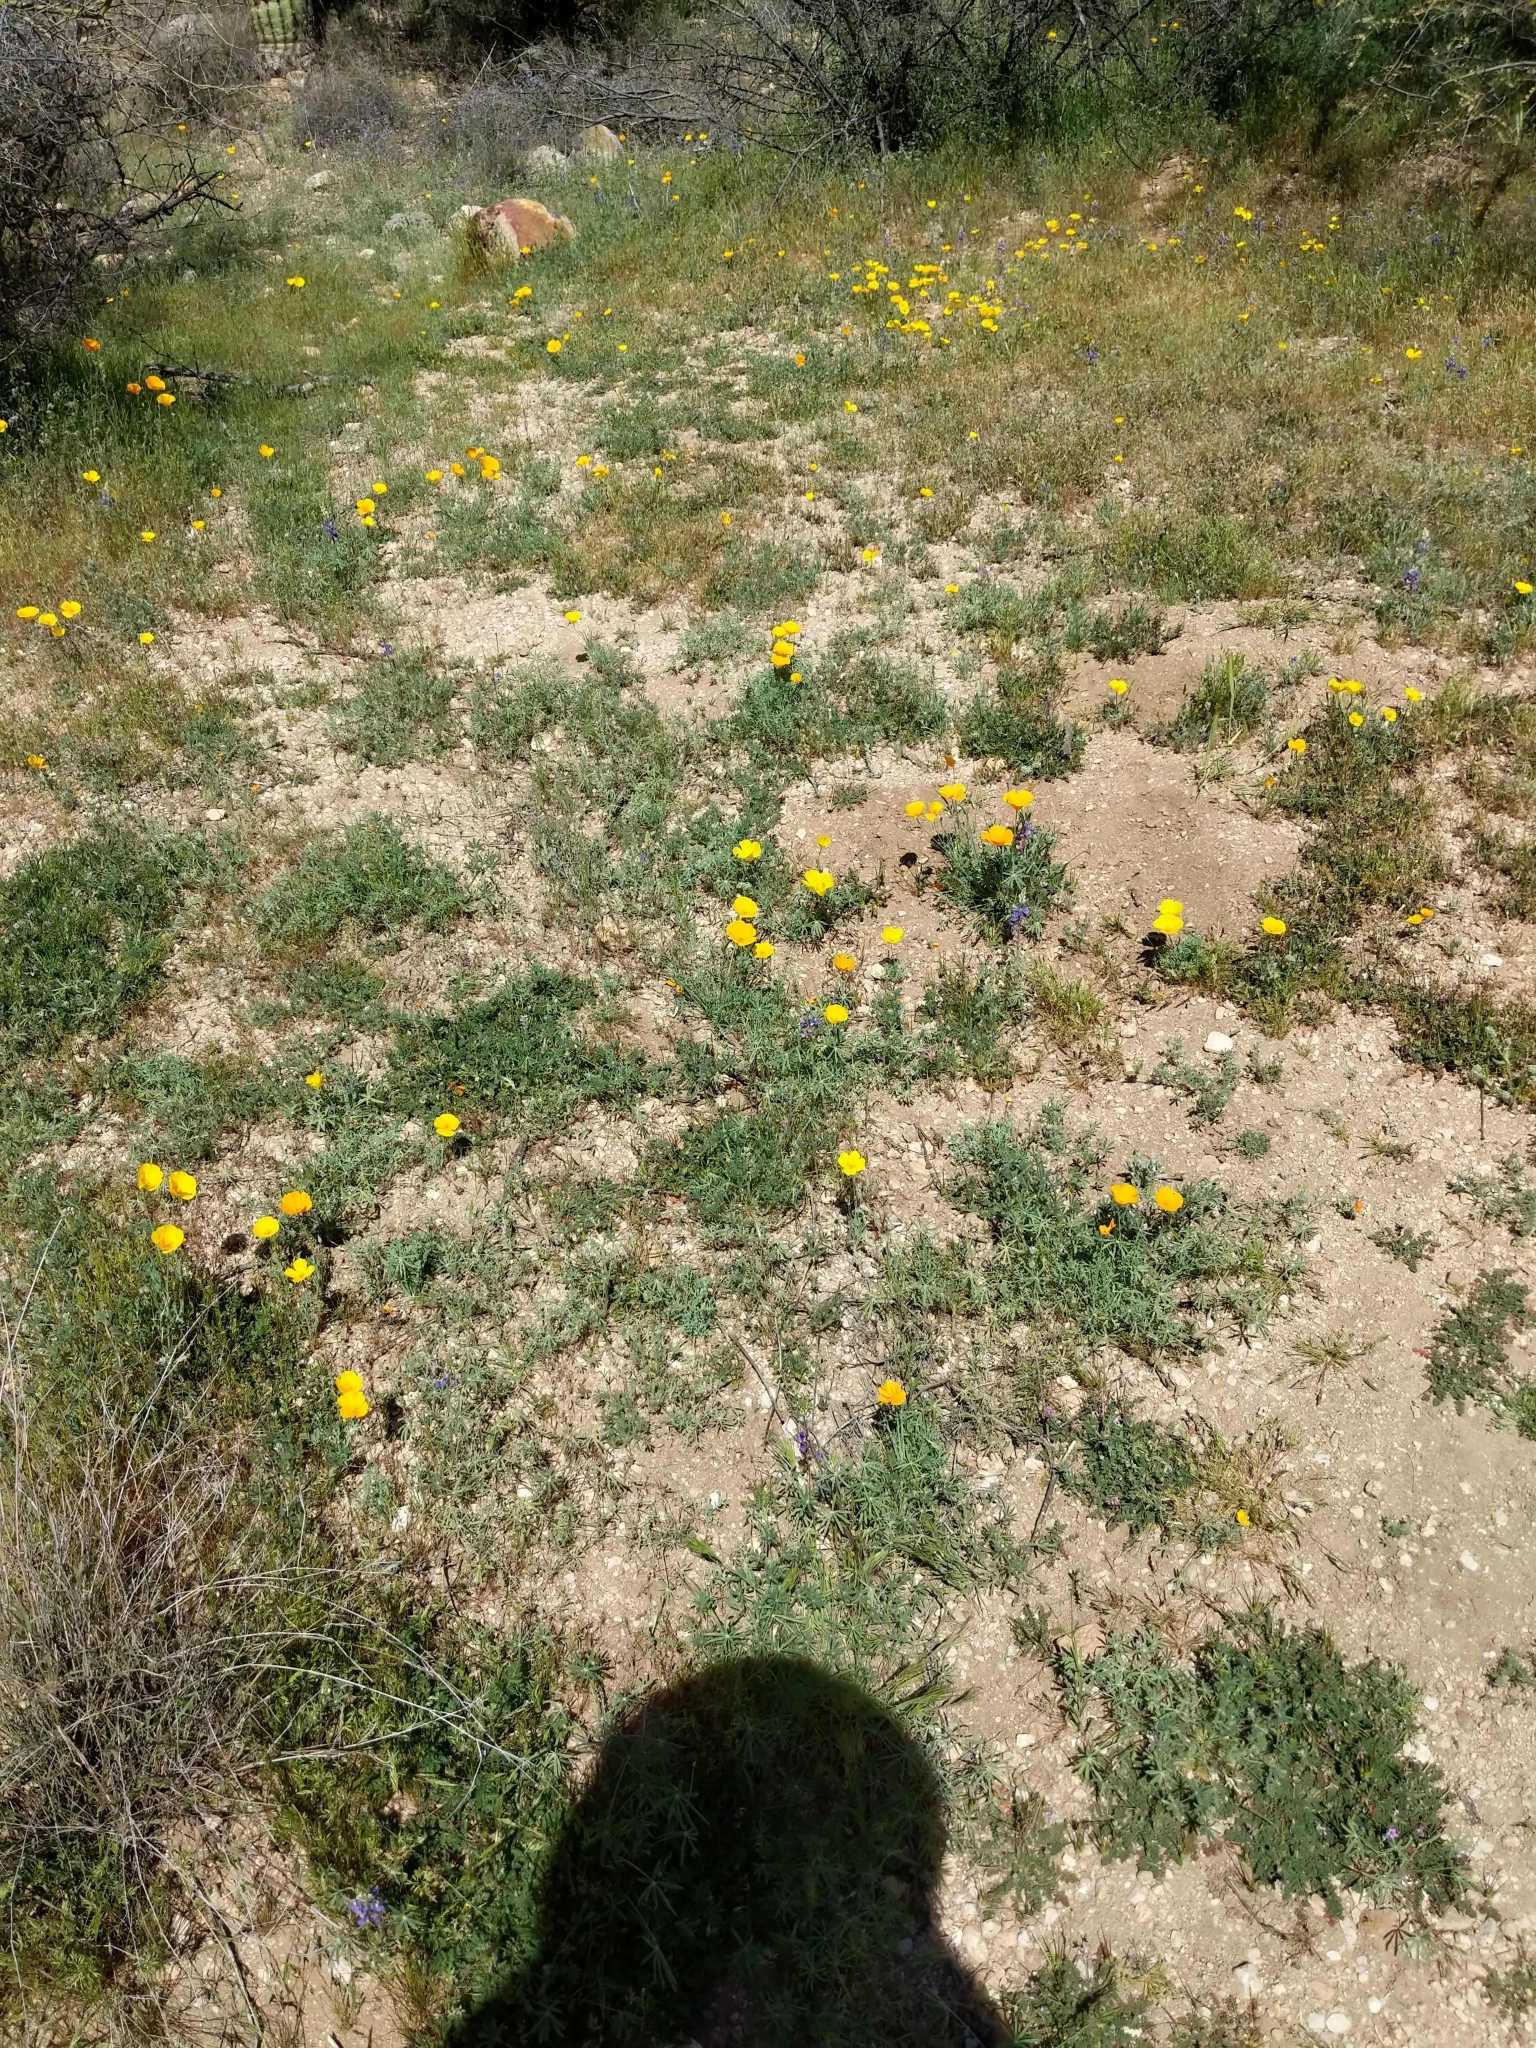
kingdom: Plantae
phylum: Tracheophyta
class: Magnoliopsida
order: Ranunculales
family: Papaveraceae
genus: Eschscholzia
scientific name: Eschscholzia californica
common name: California poppy
